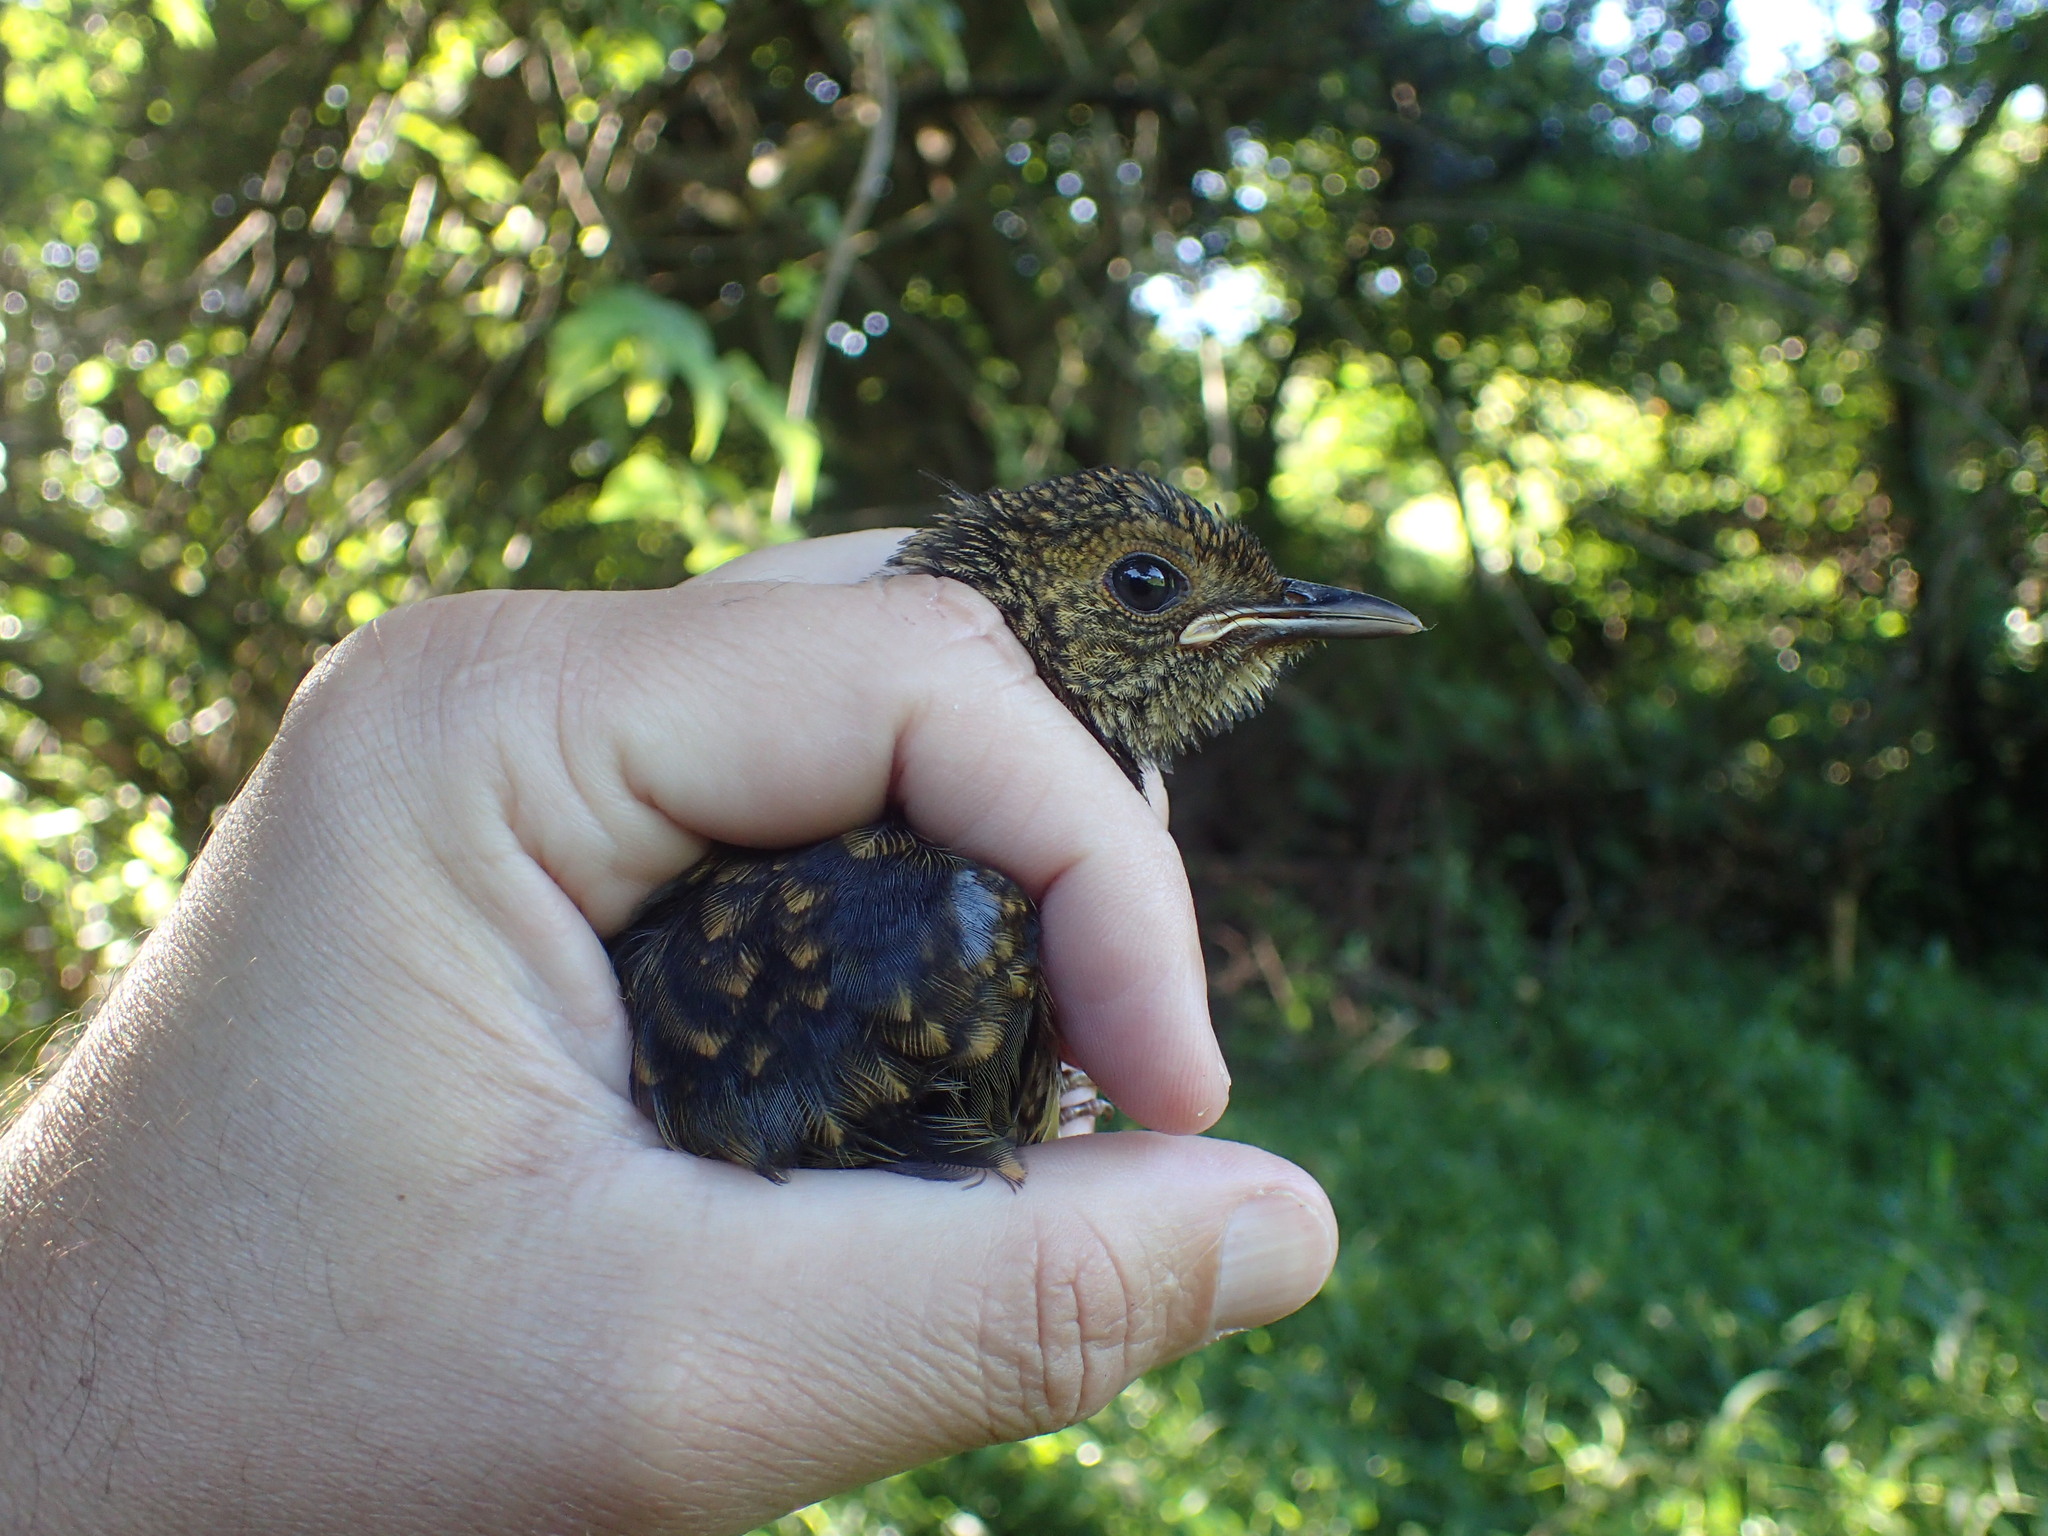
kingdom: Animalia
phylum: Chordata
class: Aves
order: Passeriformes
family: Muscicapidae
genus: Cossypha
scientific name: Cossypha natalensis
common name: Red-capped robin-chat
